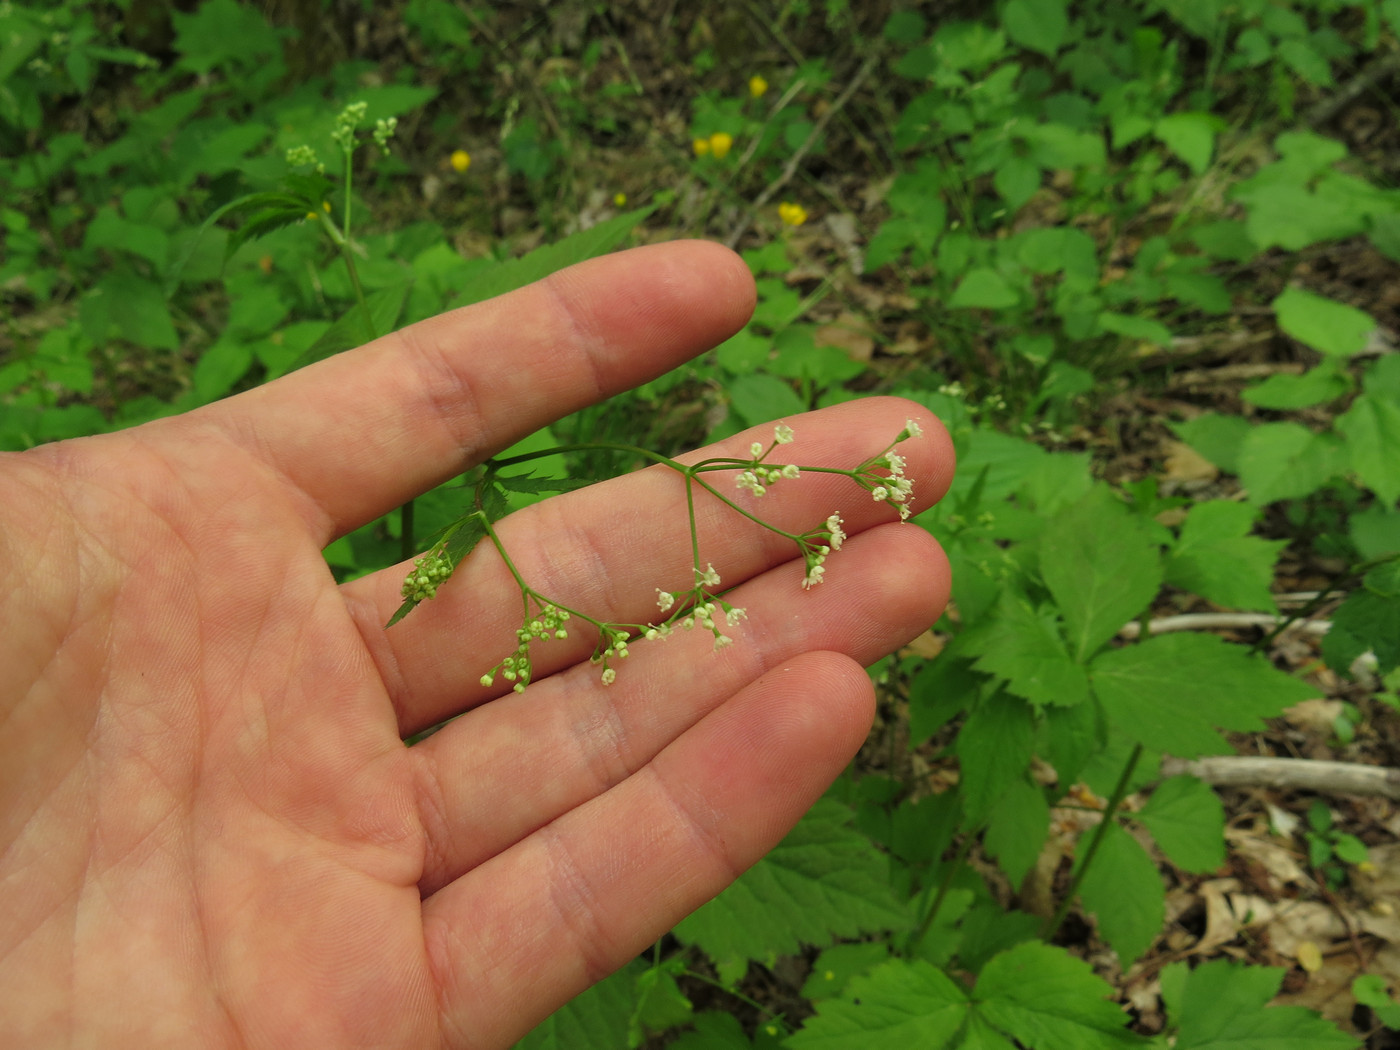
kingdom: Plantae
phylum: Tracheophyta
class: Magnoliopsida
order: Apiales
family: Apiaceae
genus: Cryptotaenia
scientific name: Cryptotaenia canadensis
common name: Honewort
